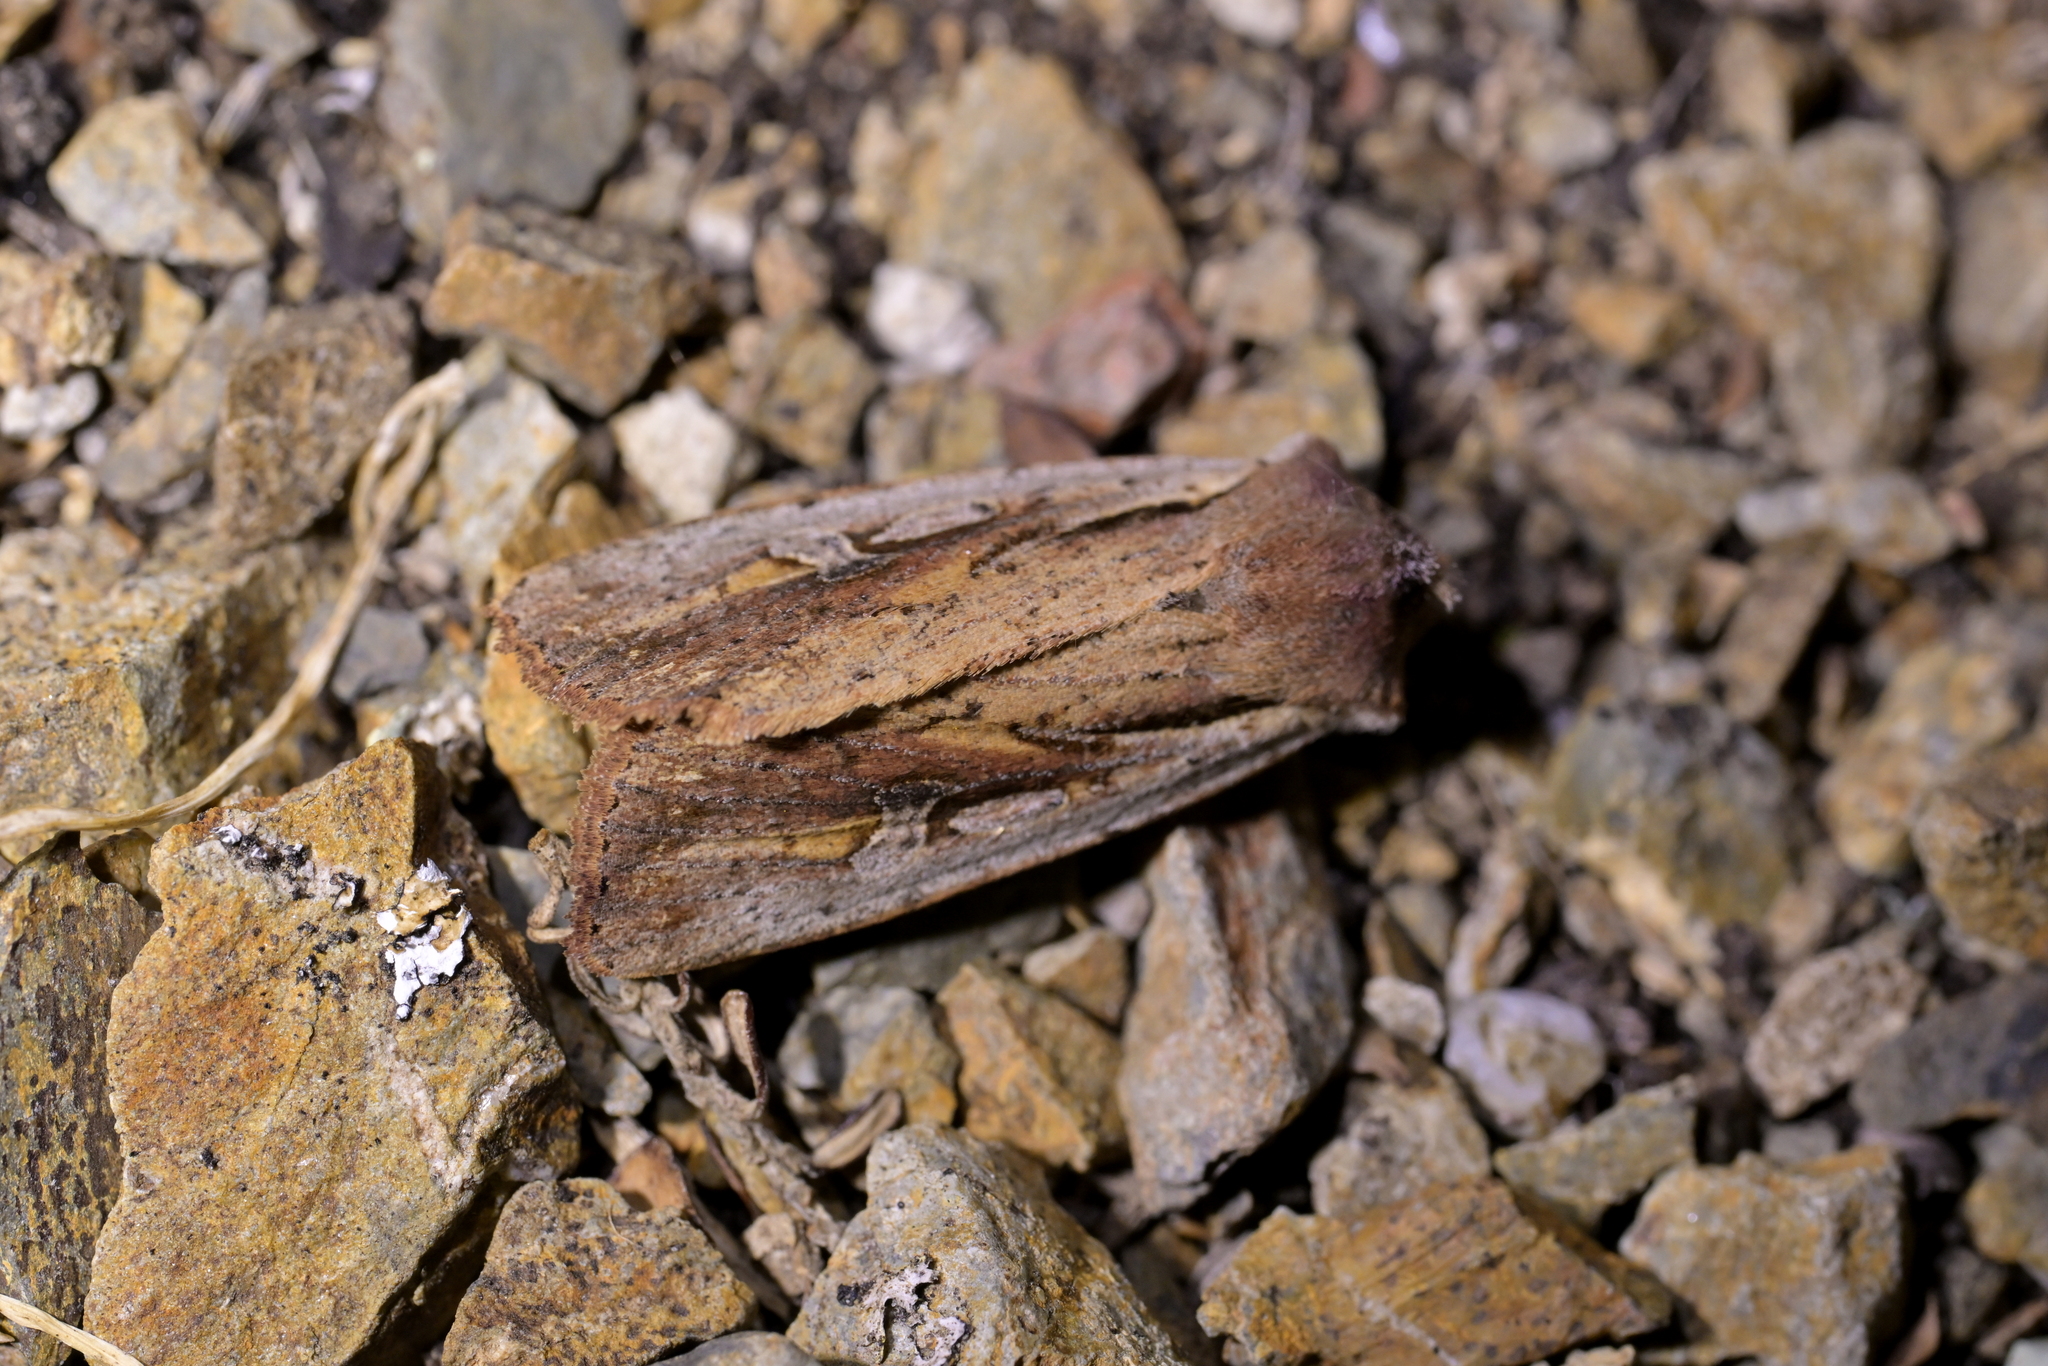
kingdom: Animalia
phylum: Arthropoda
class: Insecta
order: Lepidoptera
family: Noctuidae
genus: Ichneutica
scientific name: Ichneutica atristriga
